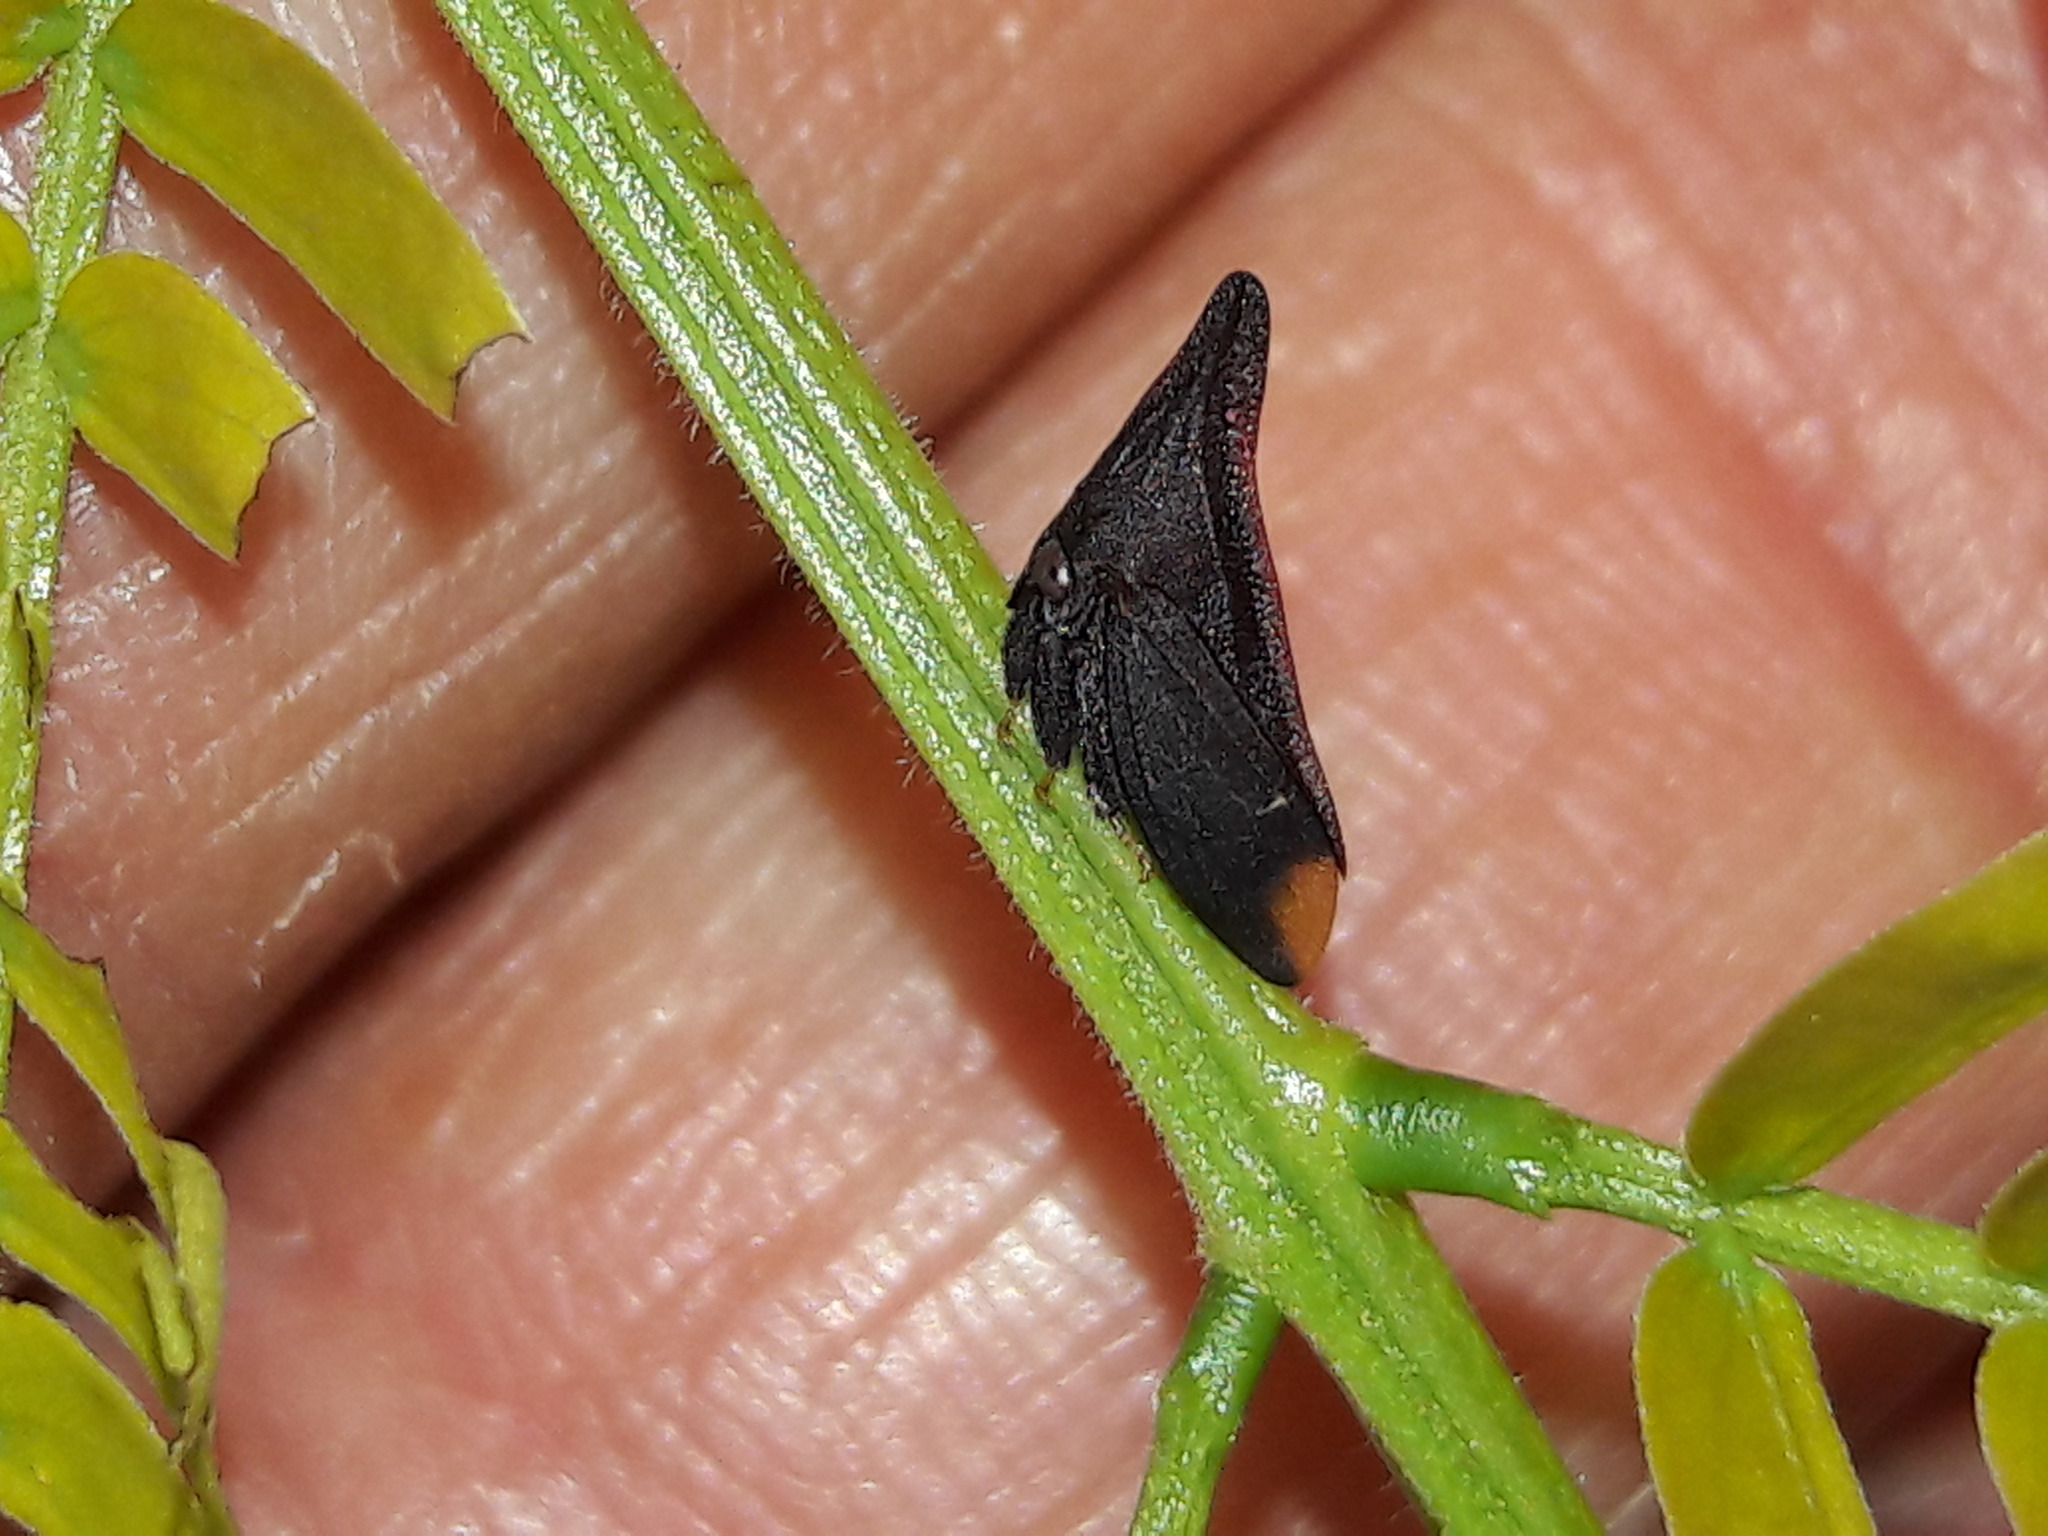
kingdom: Animalia
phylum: Arthropoda
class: Insecta
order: Hemiptera
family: Membracidae
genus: Enchenopa
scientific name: Enchenopa monoceros
